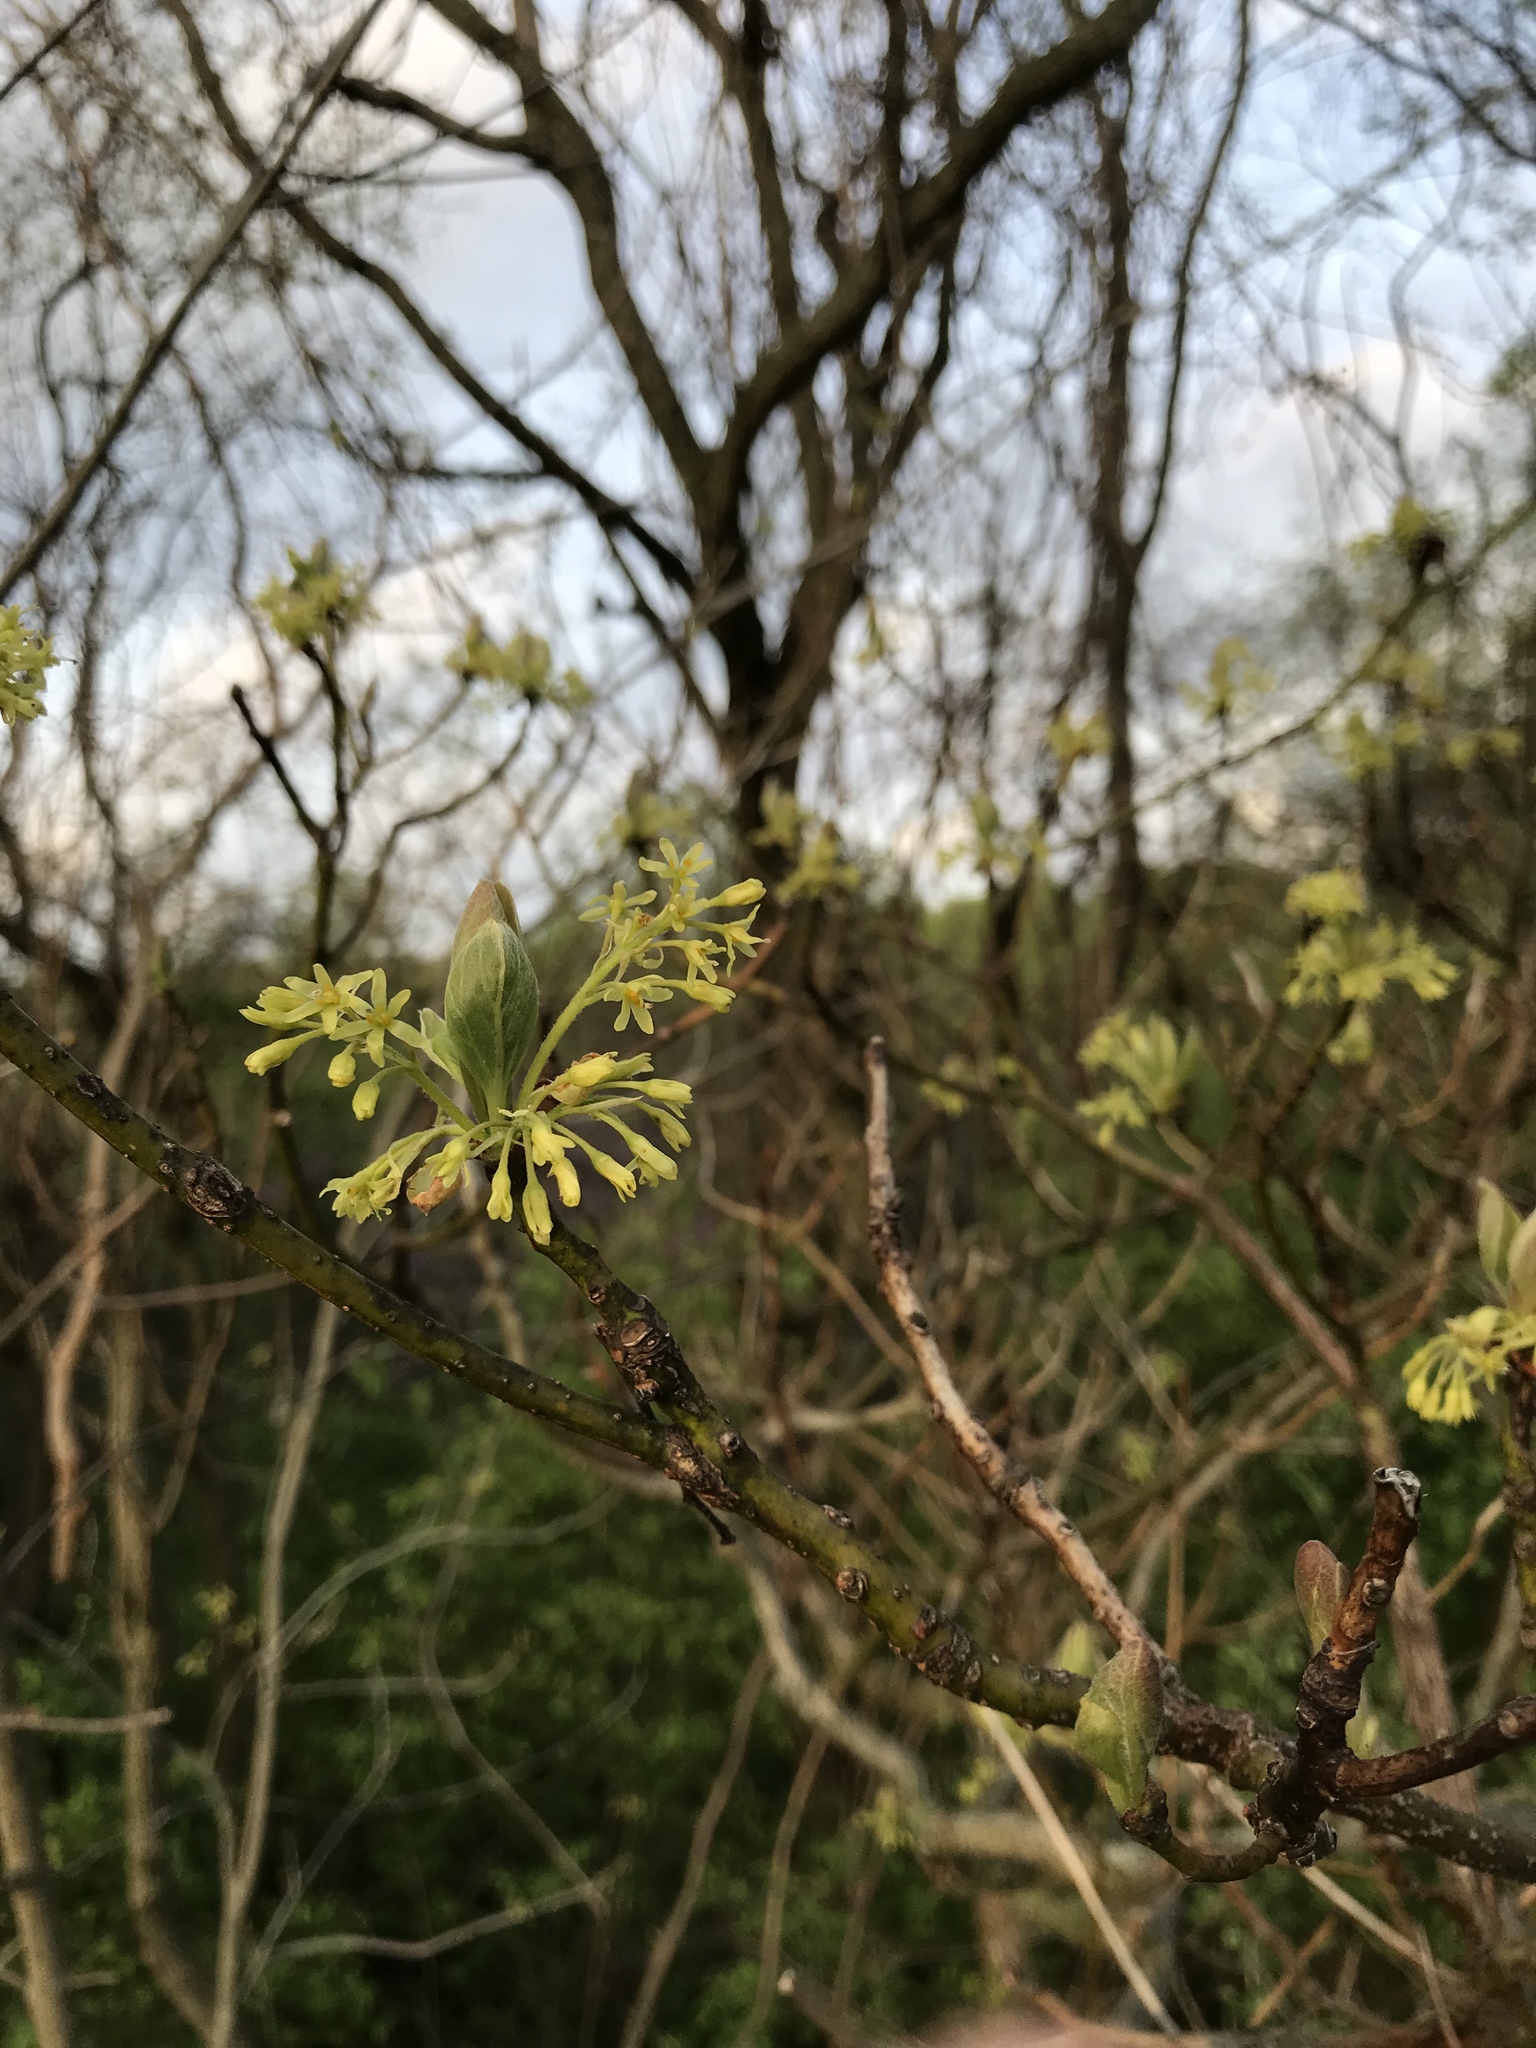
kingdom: Plantae
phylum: Tracheophyta
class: Magnoliopsida
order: Laurales
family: Lauraceae
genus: Sassafras
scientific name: Sassafras albidum
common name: Sassafras
